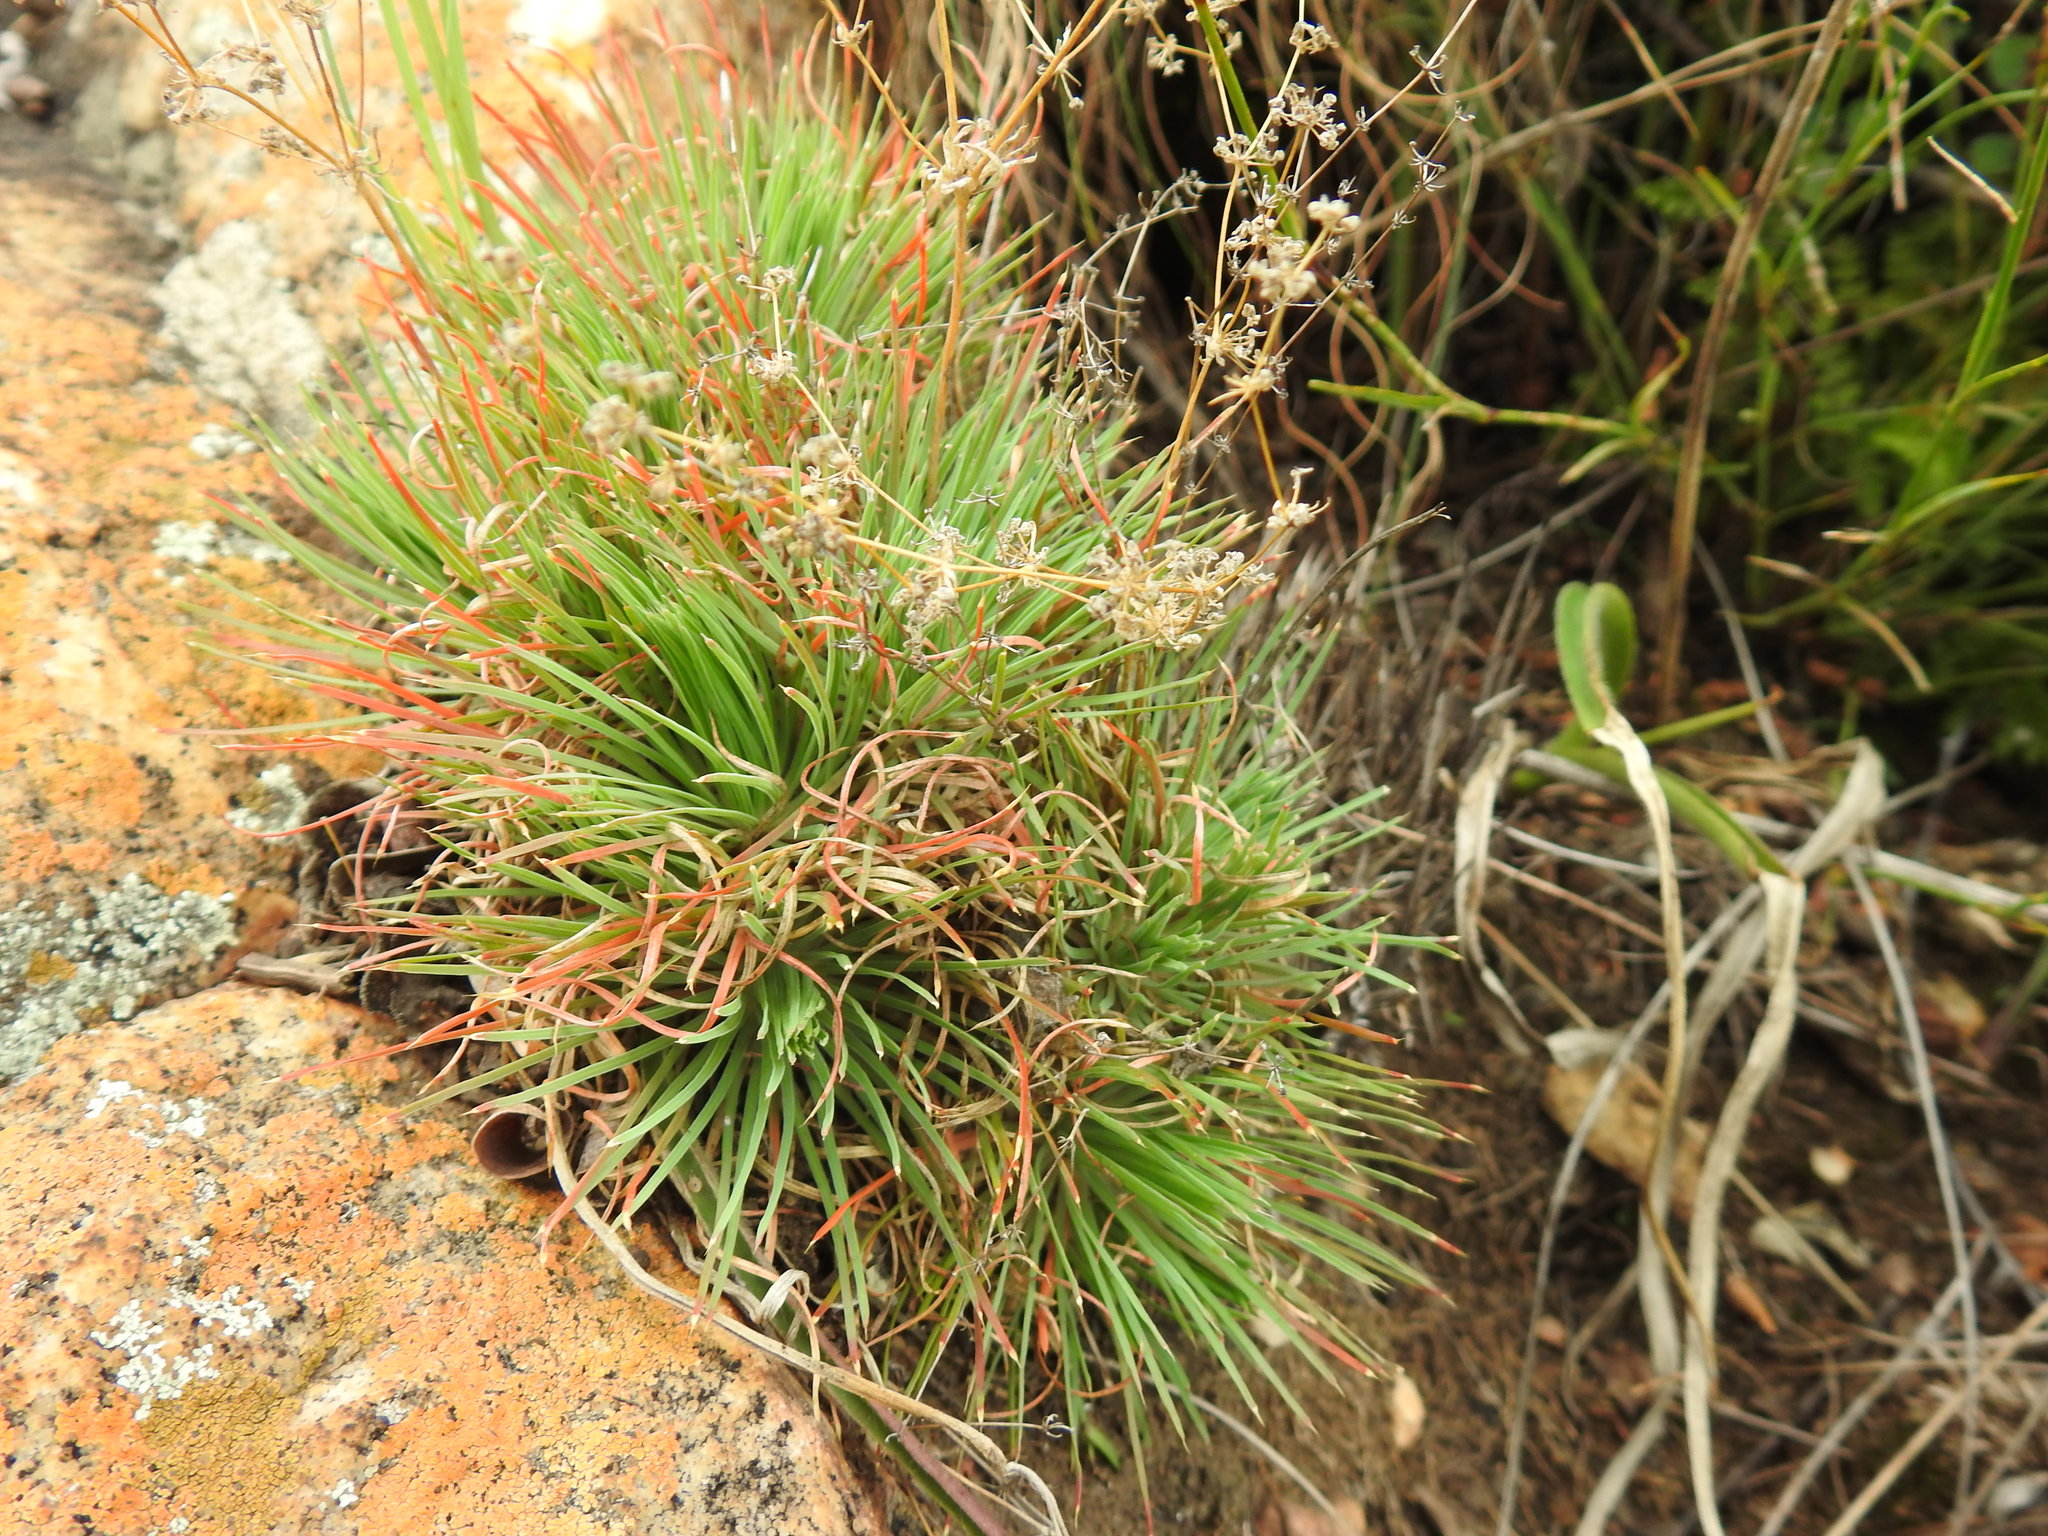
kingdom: Plantae
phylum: Tracheophyta
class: Magnoliopsida
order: Caryophyllales
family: Molluginaceae
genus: Psammotropha
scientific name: Psammotropha myriantha
